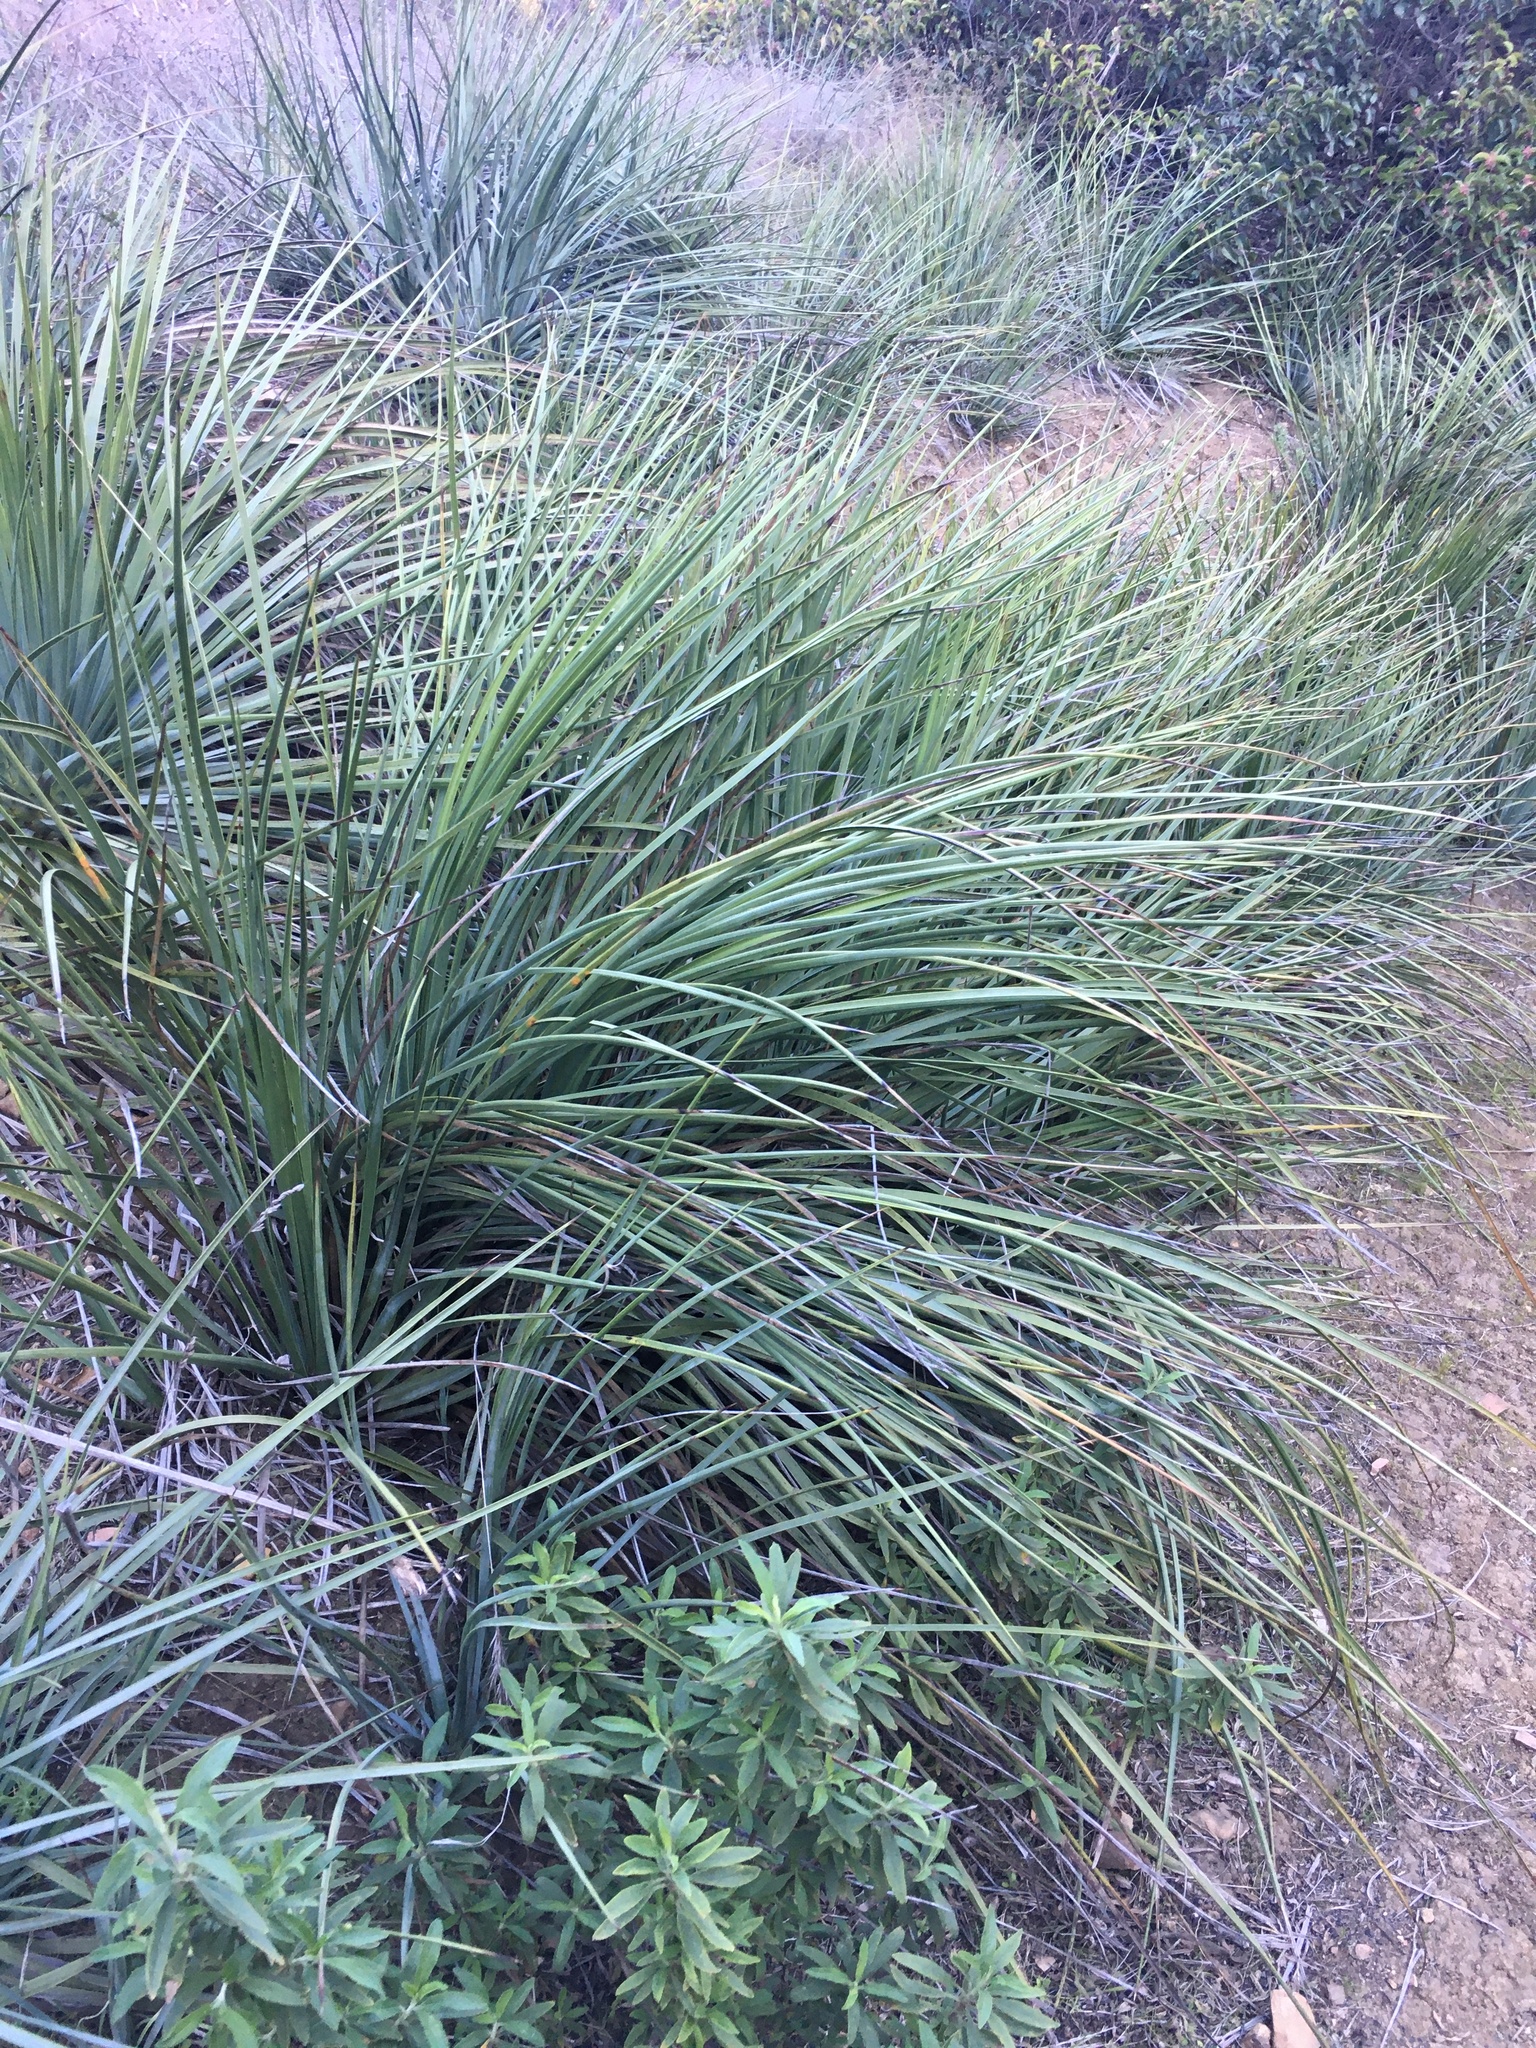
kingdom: Plantae
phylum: Tracheophyta
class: Liliopsida
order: Asparagales
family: Asparagaceae
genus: Hesperoyucca
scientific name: Hesperoyucca whipplei
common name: Our lord's-candle
